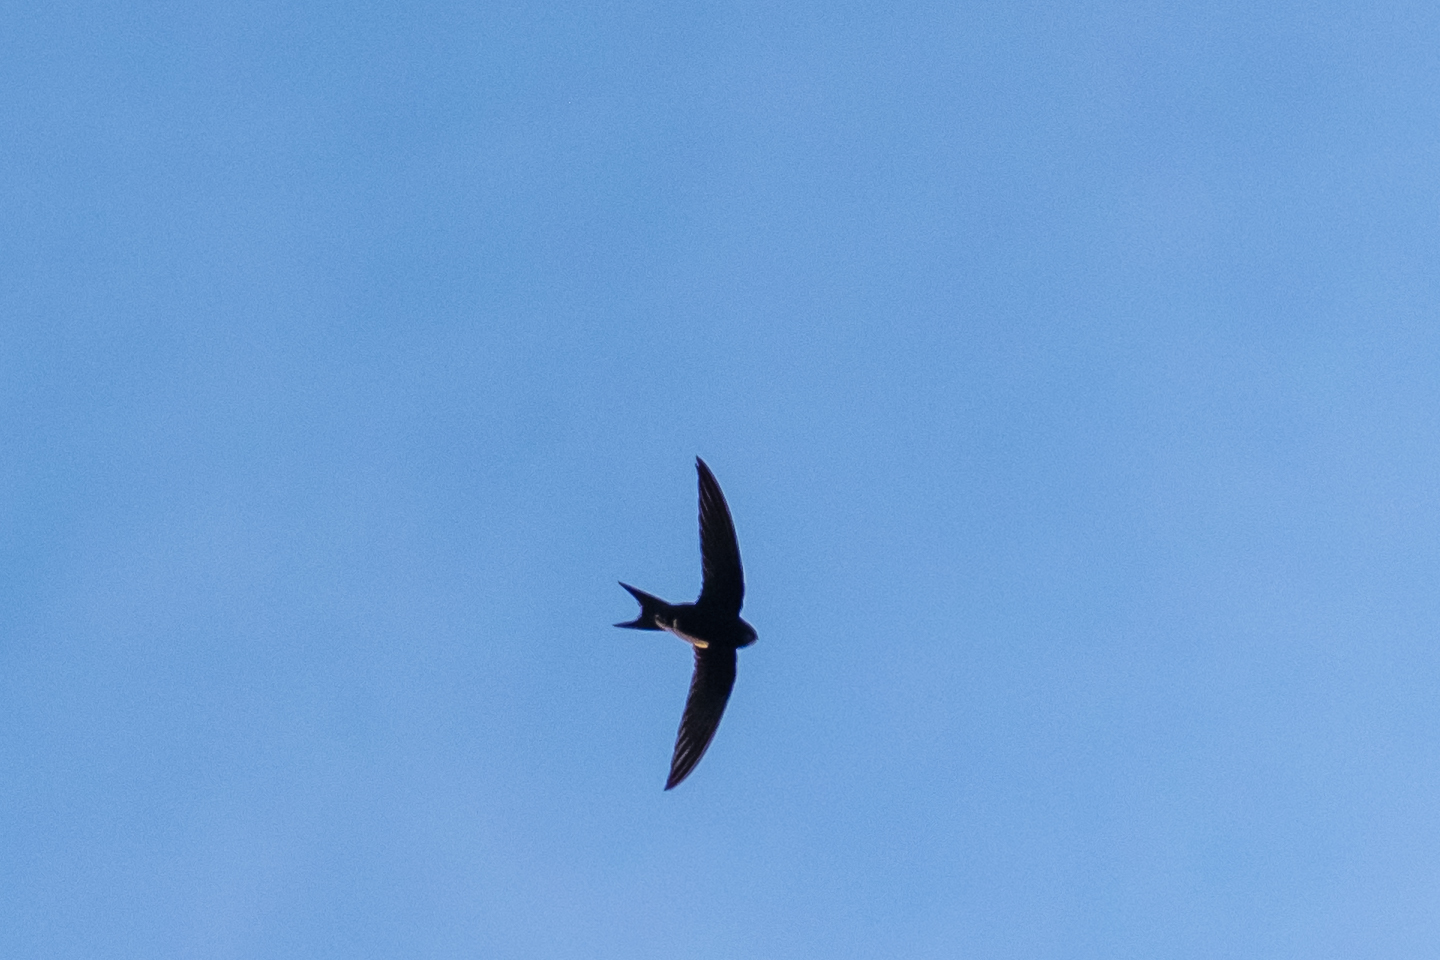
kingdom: Animalia
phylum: Chordata
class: Aves
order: Apodiformes
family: Apodidae
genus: Apus
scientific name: Apus apus
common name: Common swift
